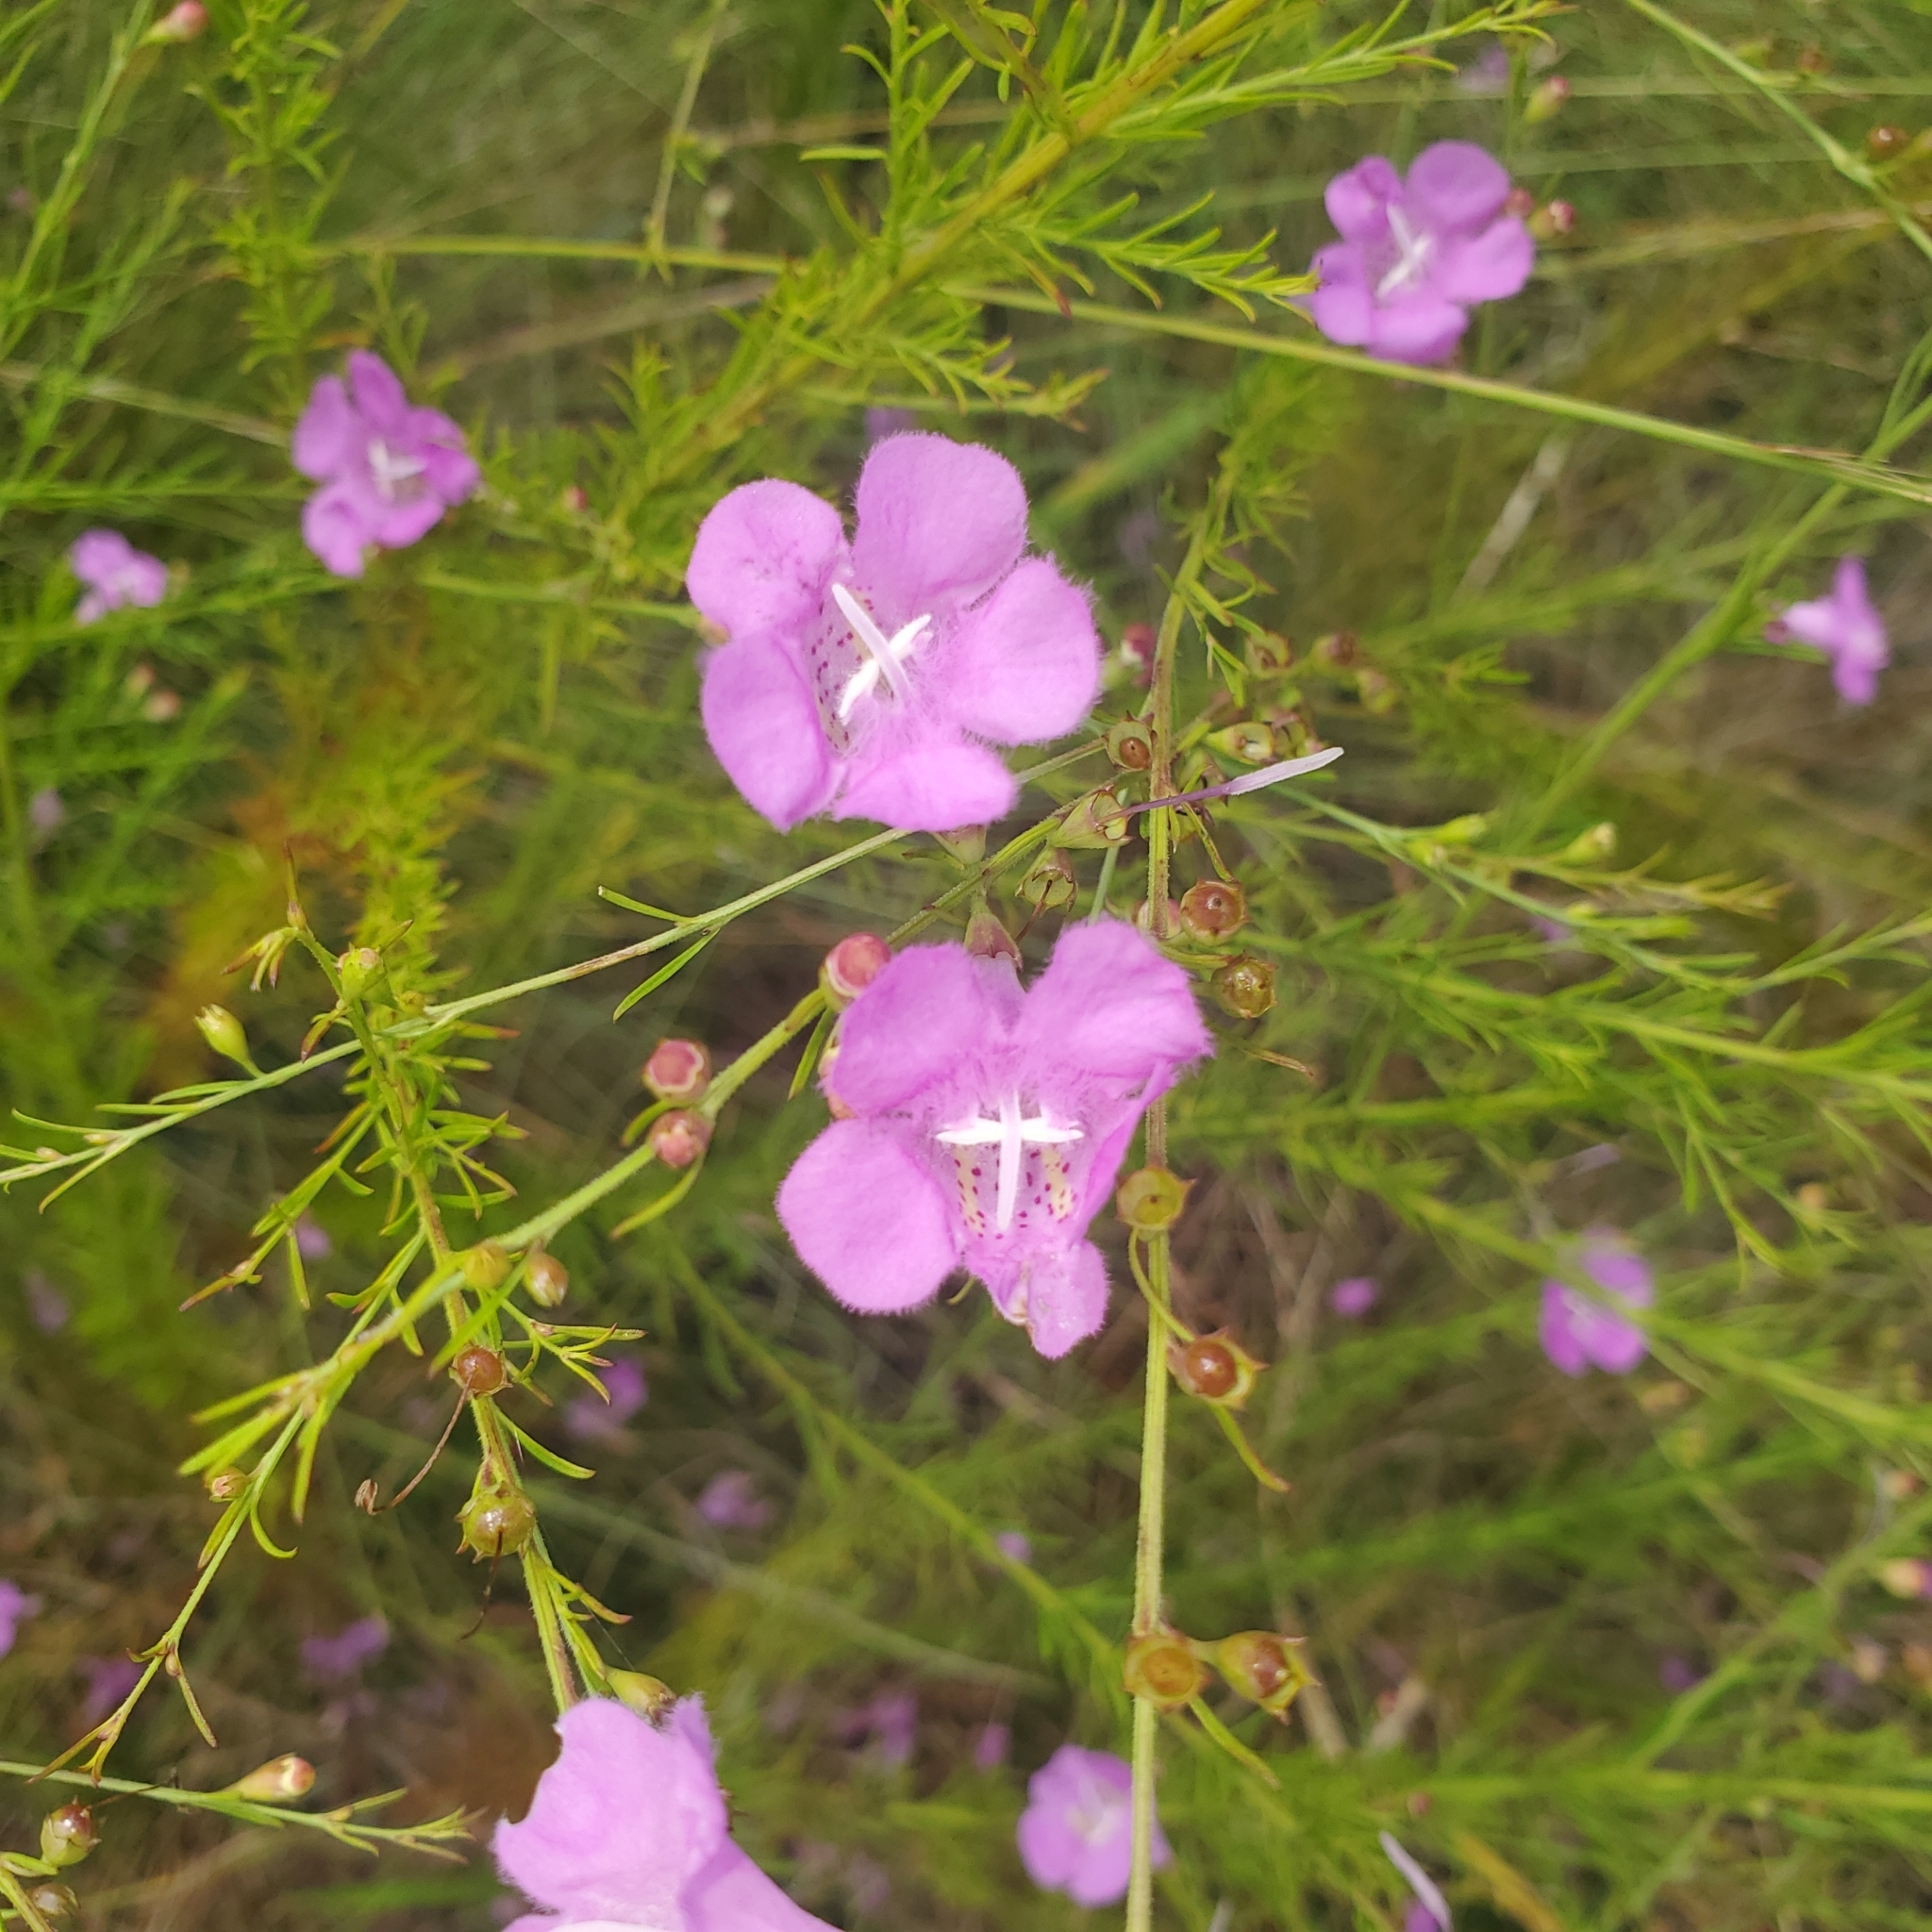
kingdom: Plantae
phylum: Tracheophyta
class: Magnoliopsida
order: Lamiales
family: Orobanchaceae
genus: Agalinis
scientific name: Agalinis fasciculata
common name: Beach false foxglove
